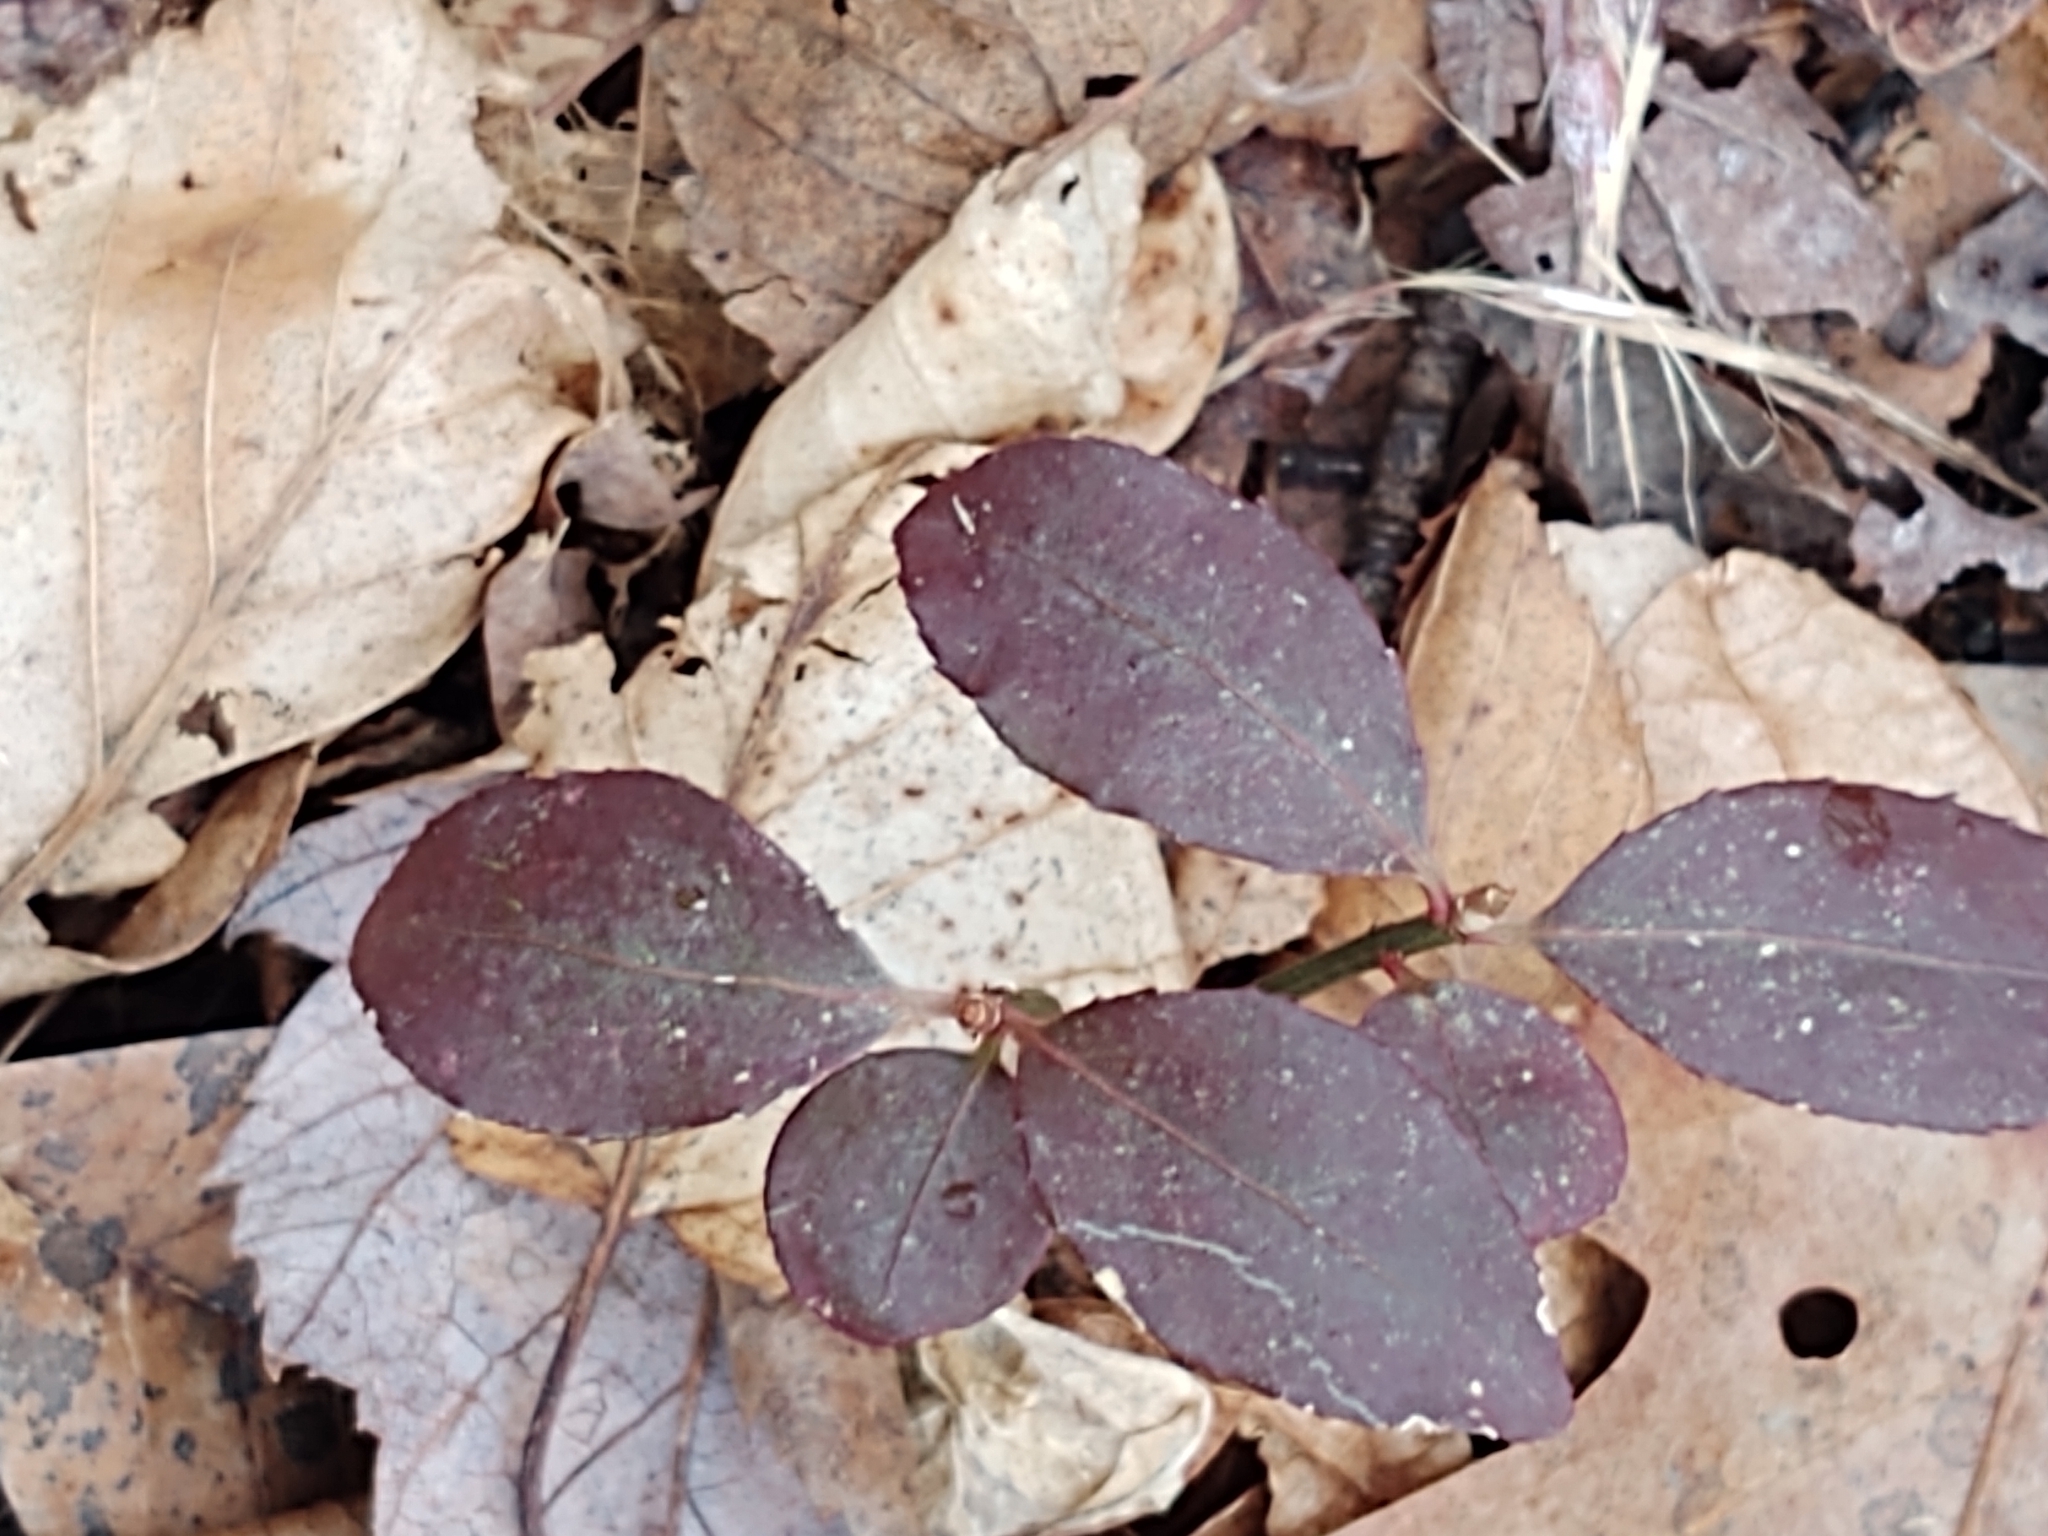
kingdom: Plantae
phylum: Tracheophyta
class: Magnoliopsida
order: Ericales
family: Ericaceae
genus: Gaultheria
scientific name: Gaultheria procumbens
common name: Checkerberry
